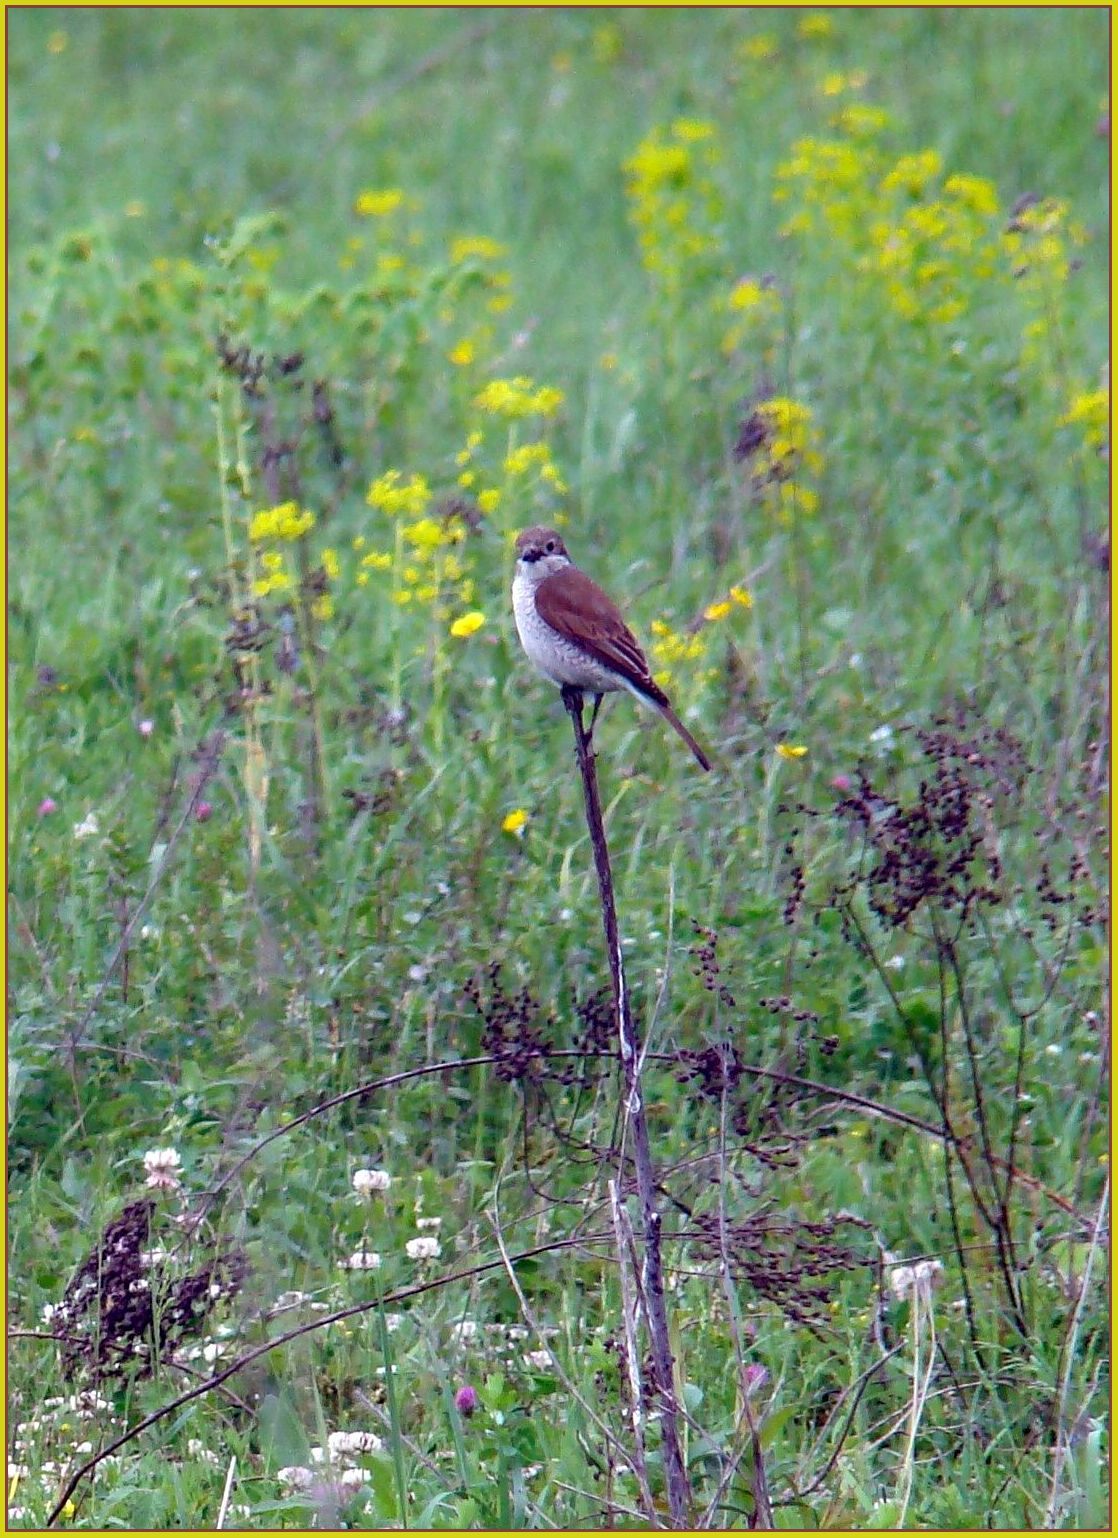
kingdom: Animalia
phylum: Chordata
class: Aves
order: Passeriformes
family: Laniidae
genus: Lanius
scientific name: Lanius collurio
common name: Red-backed shrike
